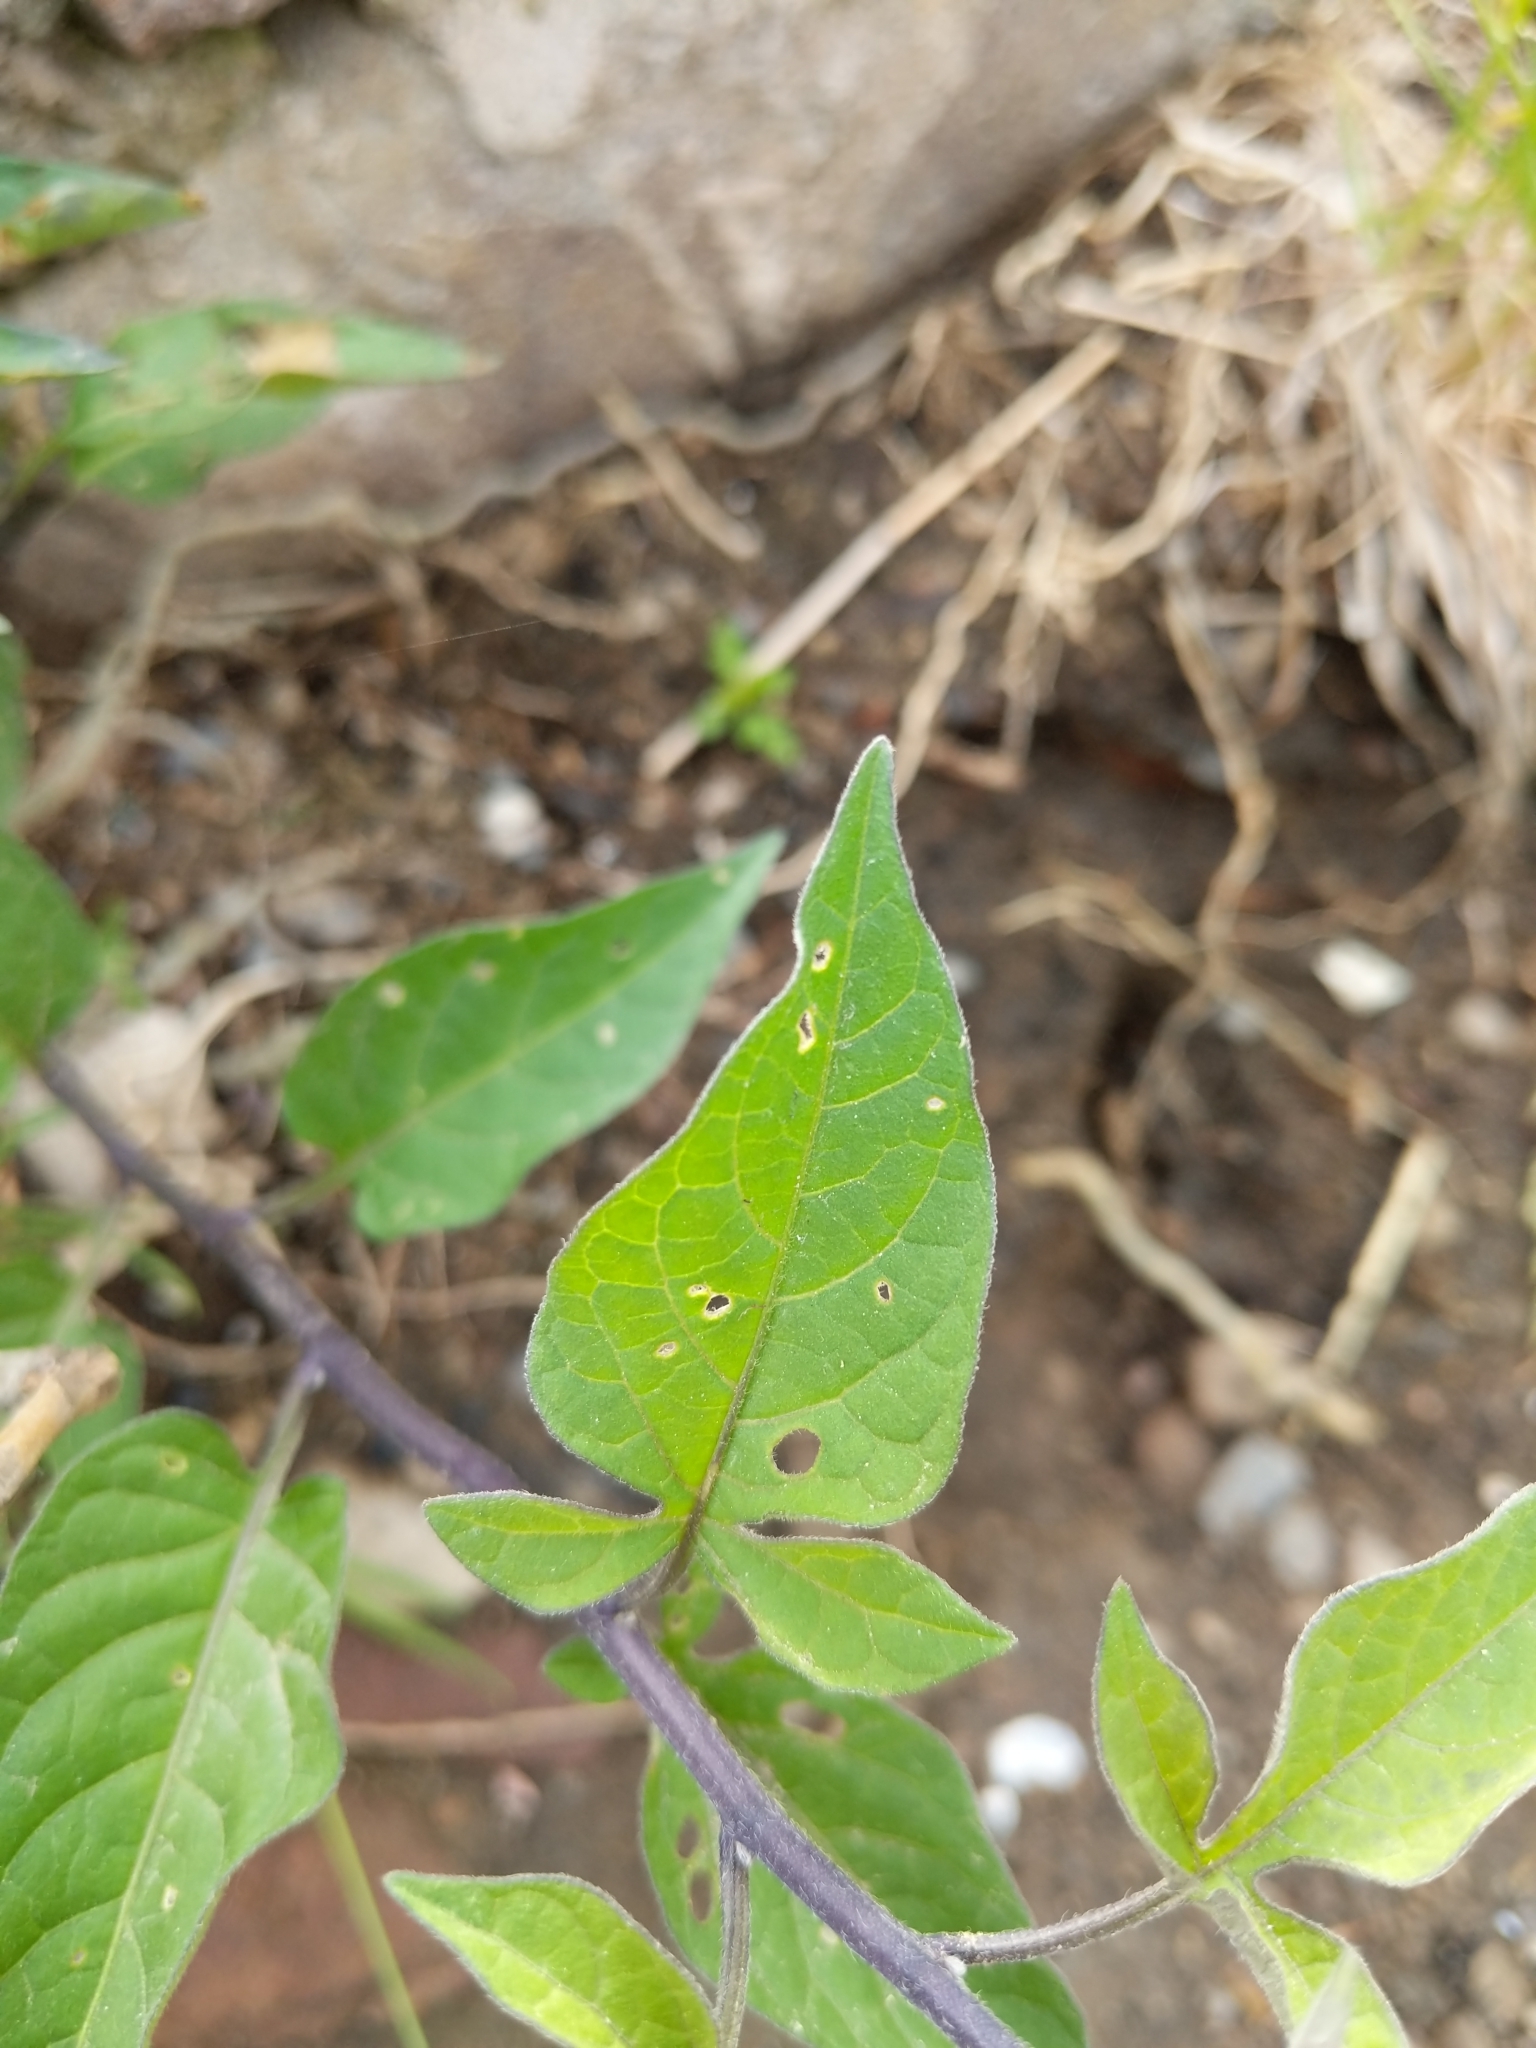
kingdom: Plantae
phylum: Tracheophyta
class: Magnoliopsida
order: Solanales
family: Solanaceae
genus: Solanum
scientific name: Solanum dulcamara
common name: Climbing nightshade
